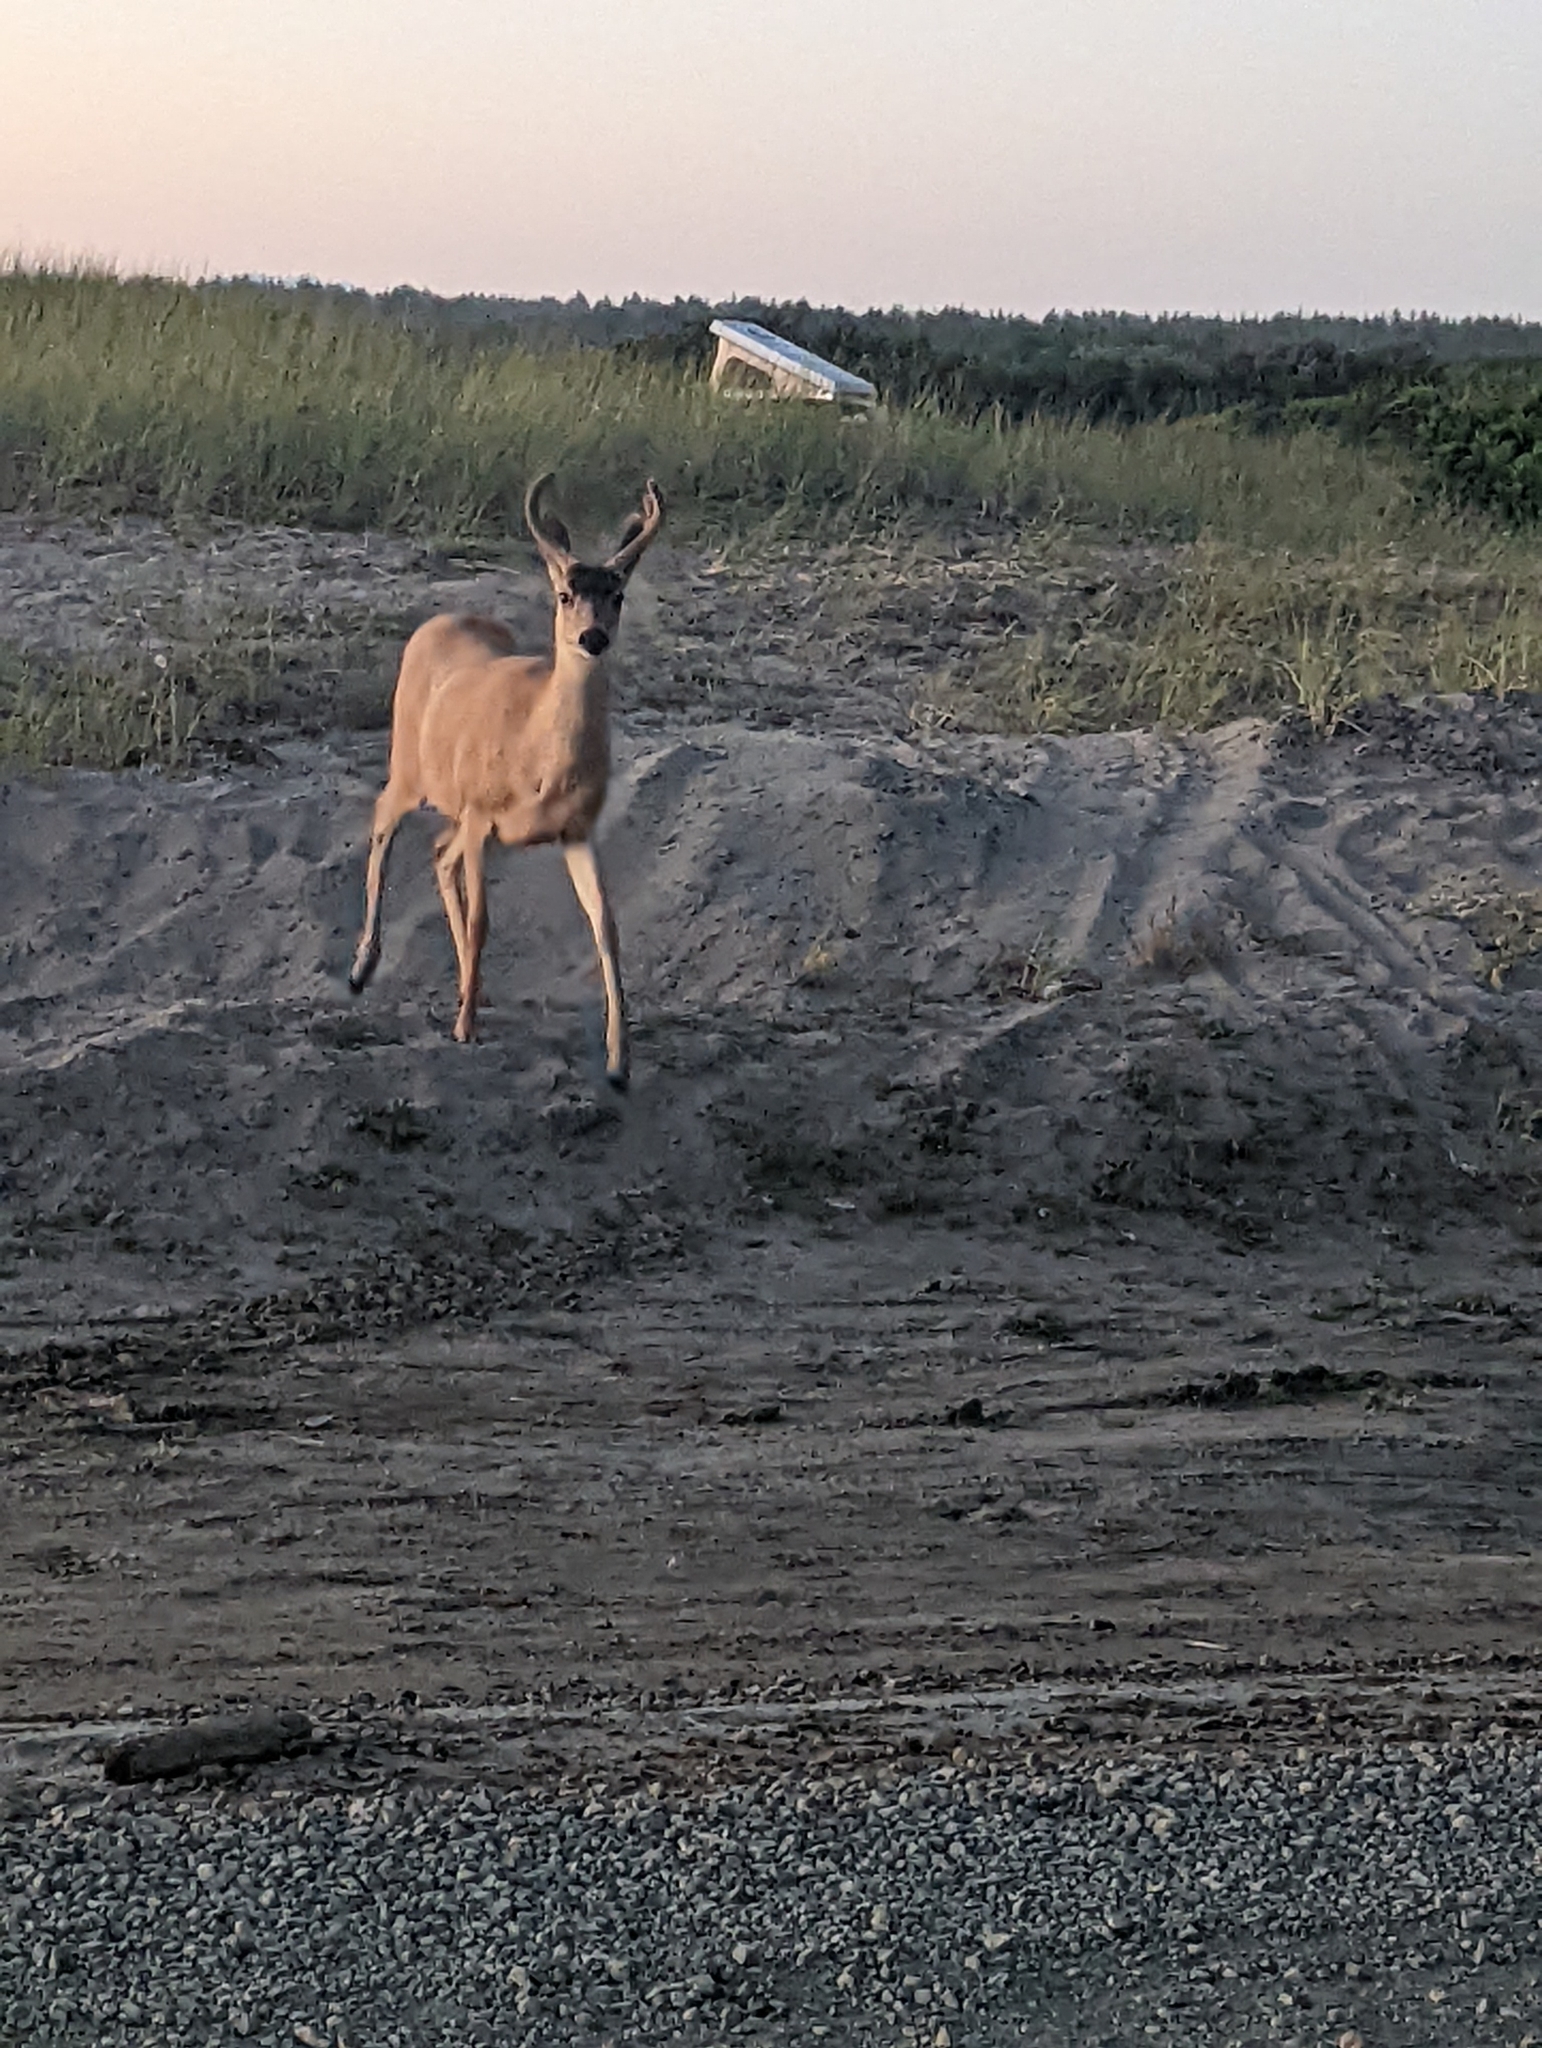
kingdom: Animalia
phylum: Chordata
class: Mammalia
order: Artiodactyla
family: Cervidae
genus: Odocoileus
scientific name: Odocoileus hemionus
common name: Mule deer
